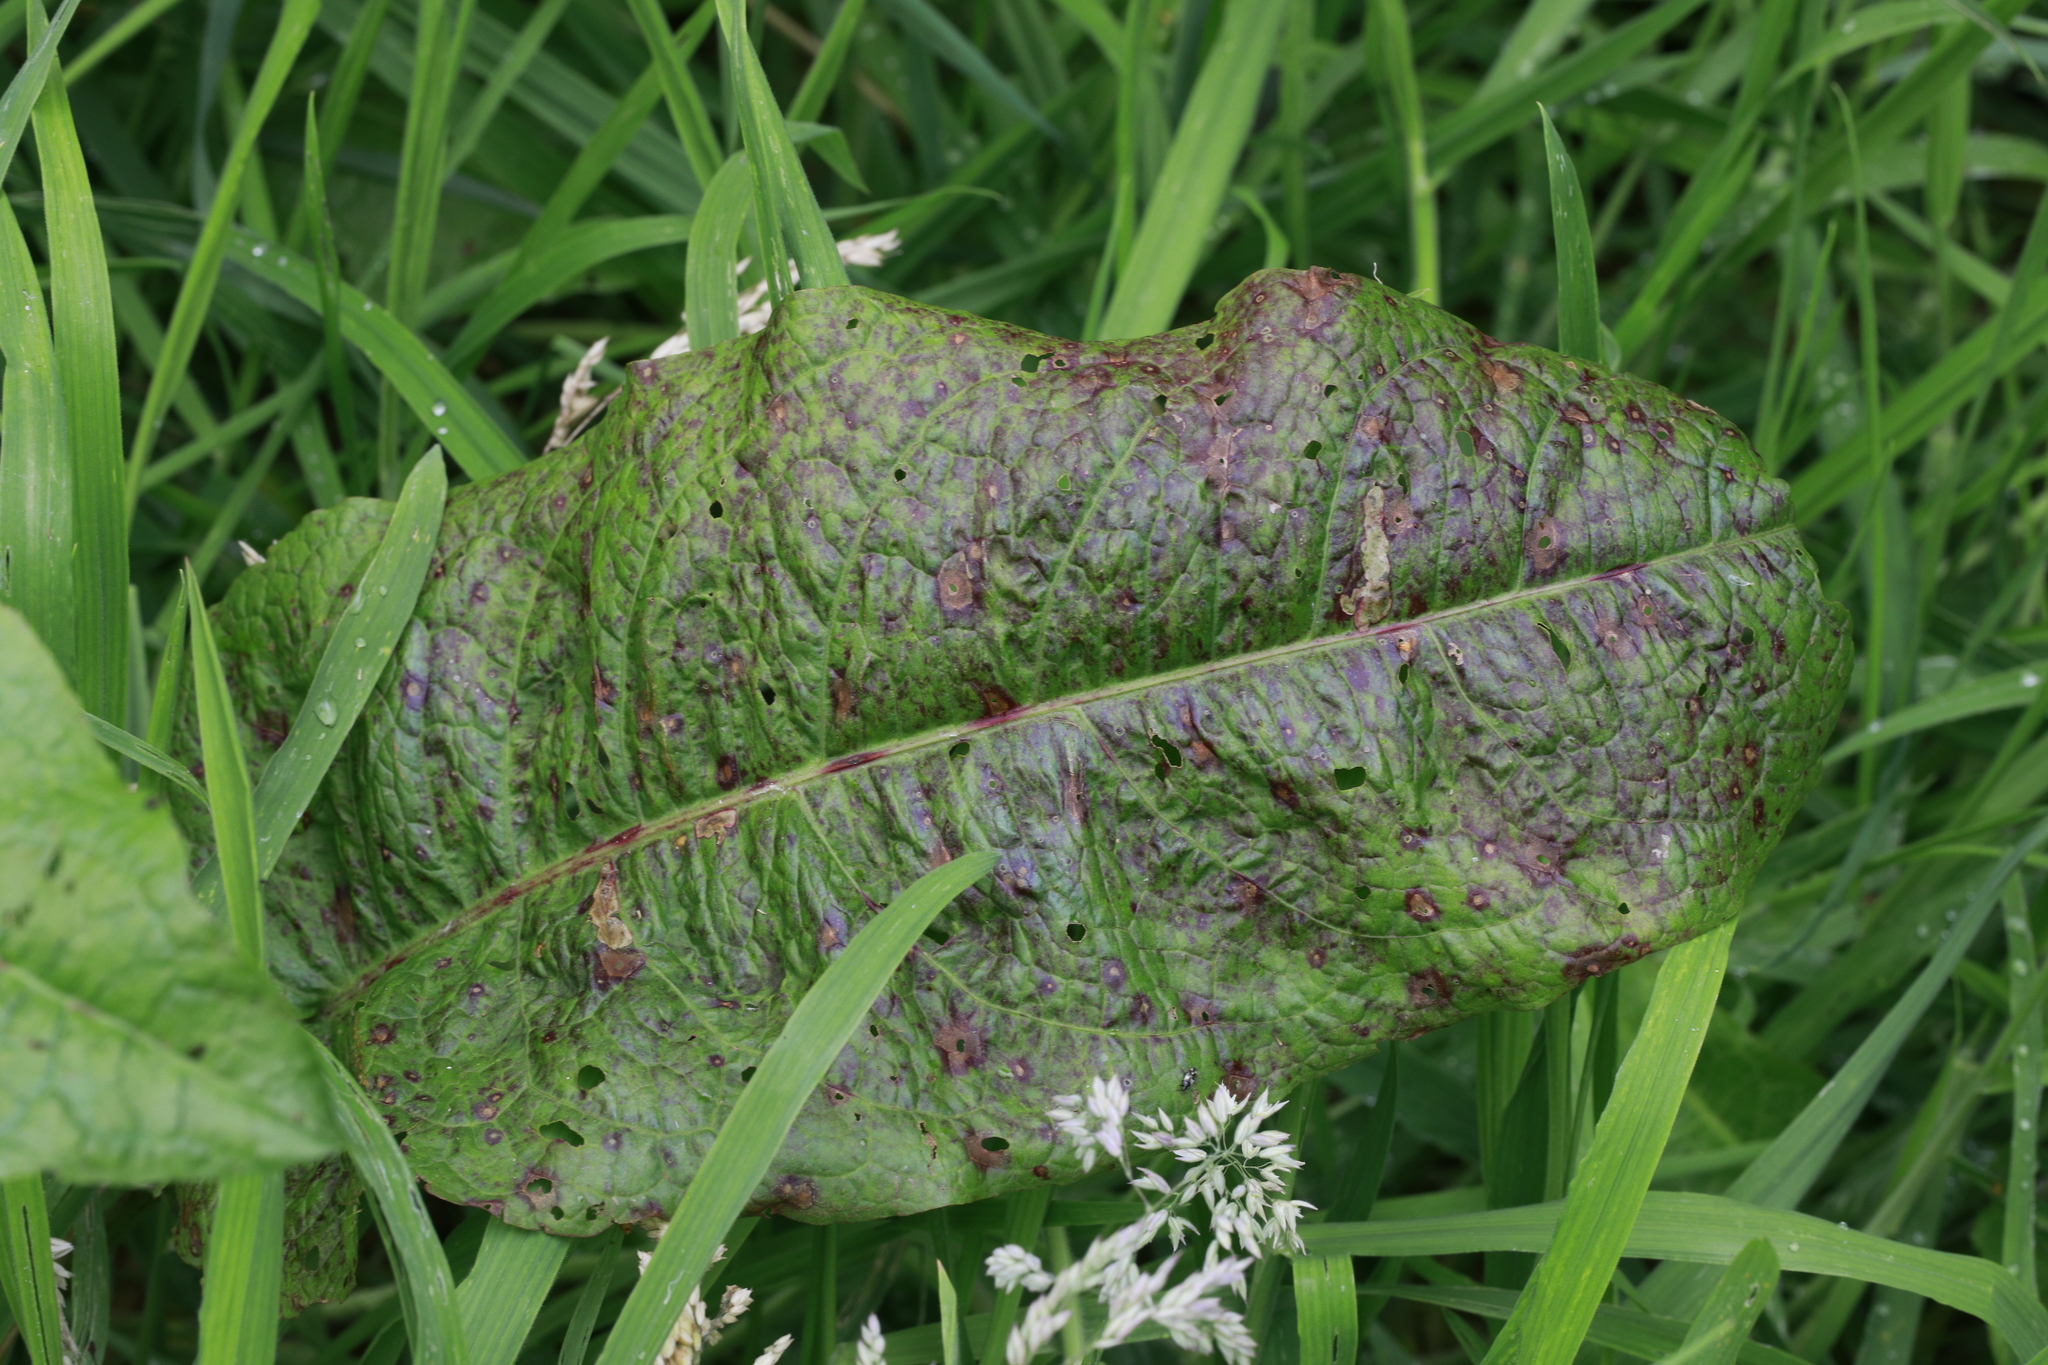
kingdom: Plantae
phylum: Tracheophyta
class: Magnoliopsida
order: Caryophyllales
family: Polygonaceae
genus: Rumex
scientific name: Rumex obtusifolius
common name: Bitter dock
